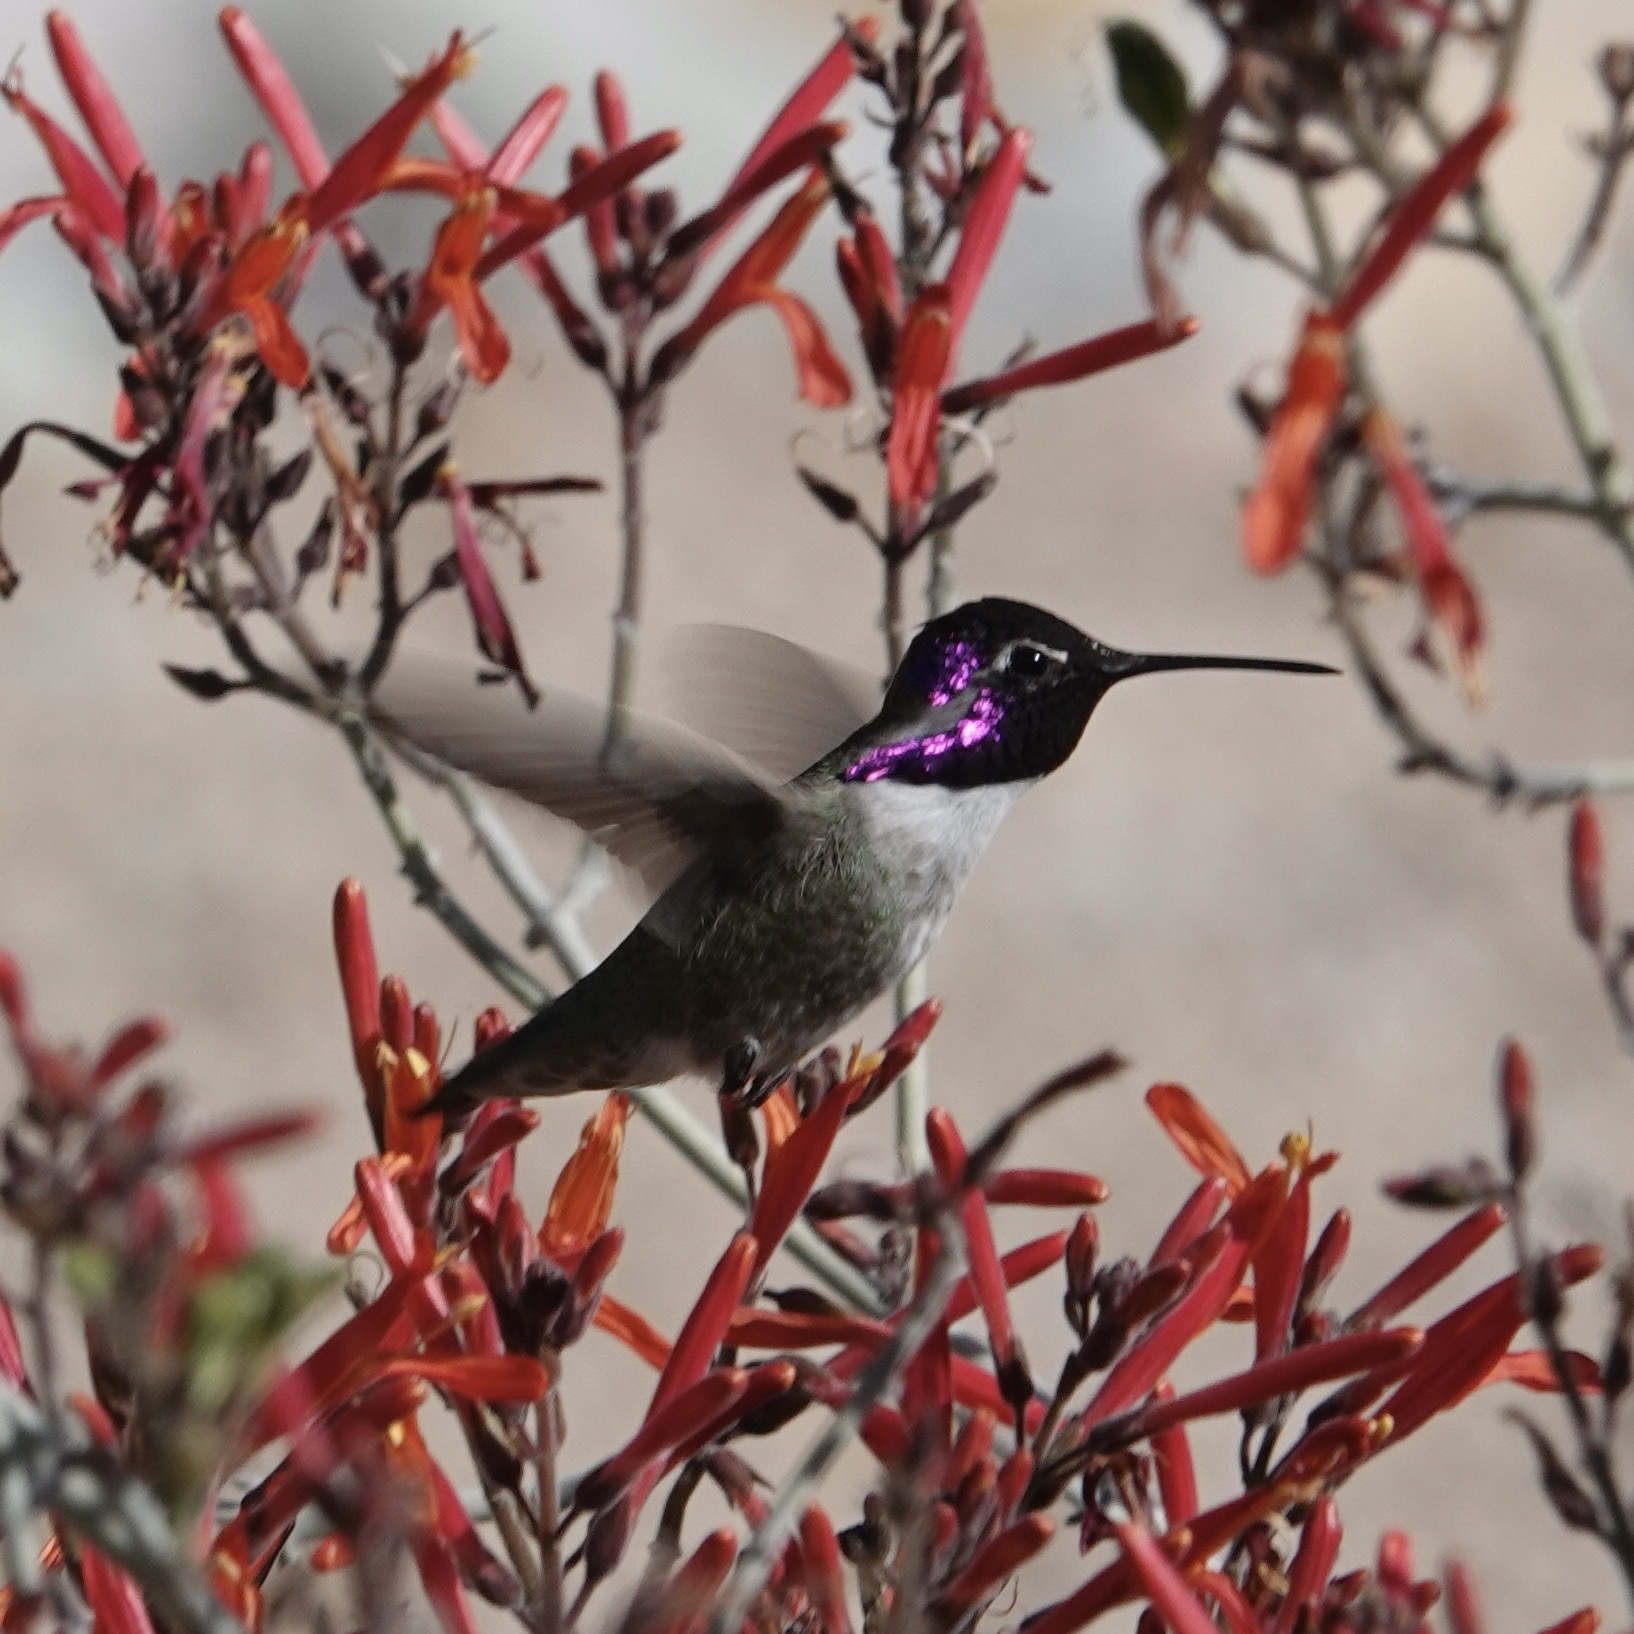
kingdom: Animalia
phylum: Chordata
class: Aves
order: Apodiformes
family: Trochilidae
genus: Calypte
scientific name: Calypte costae
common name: Costa's hummingbird
